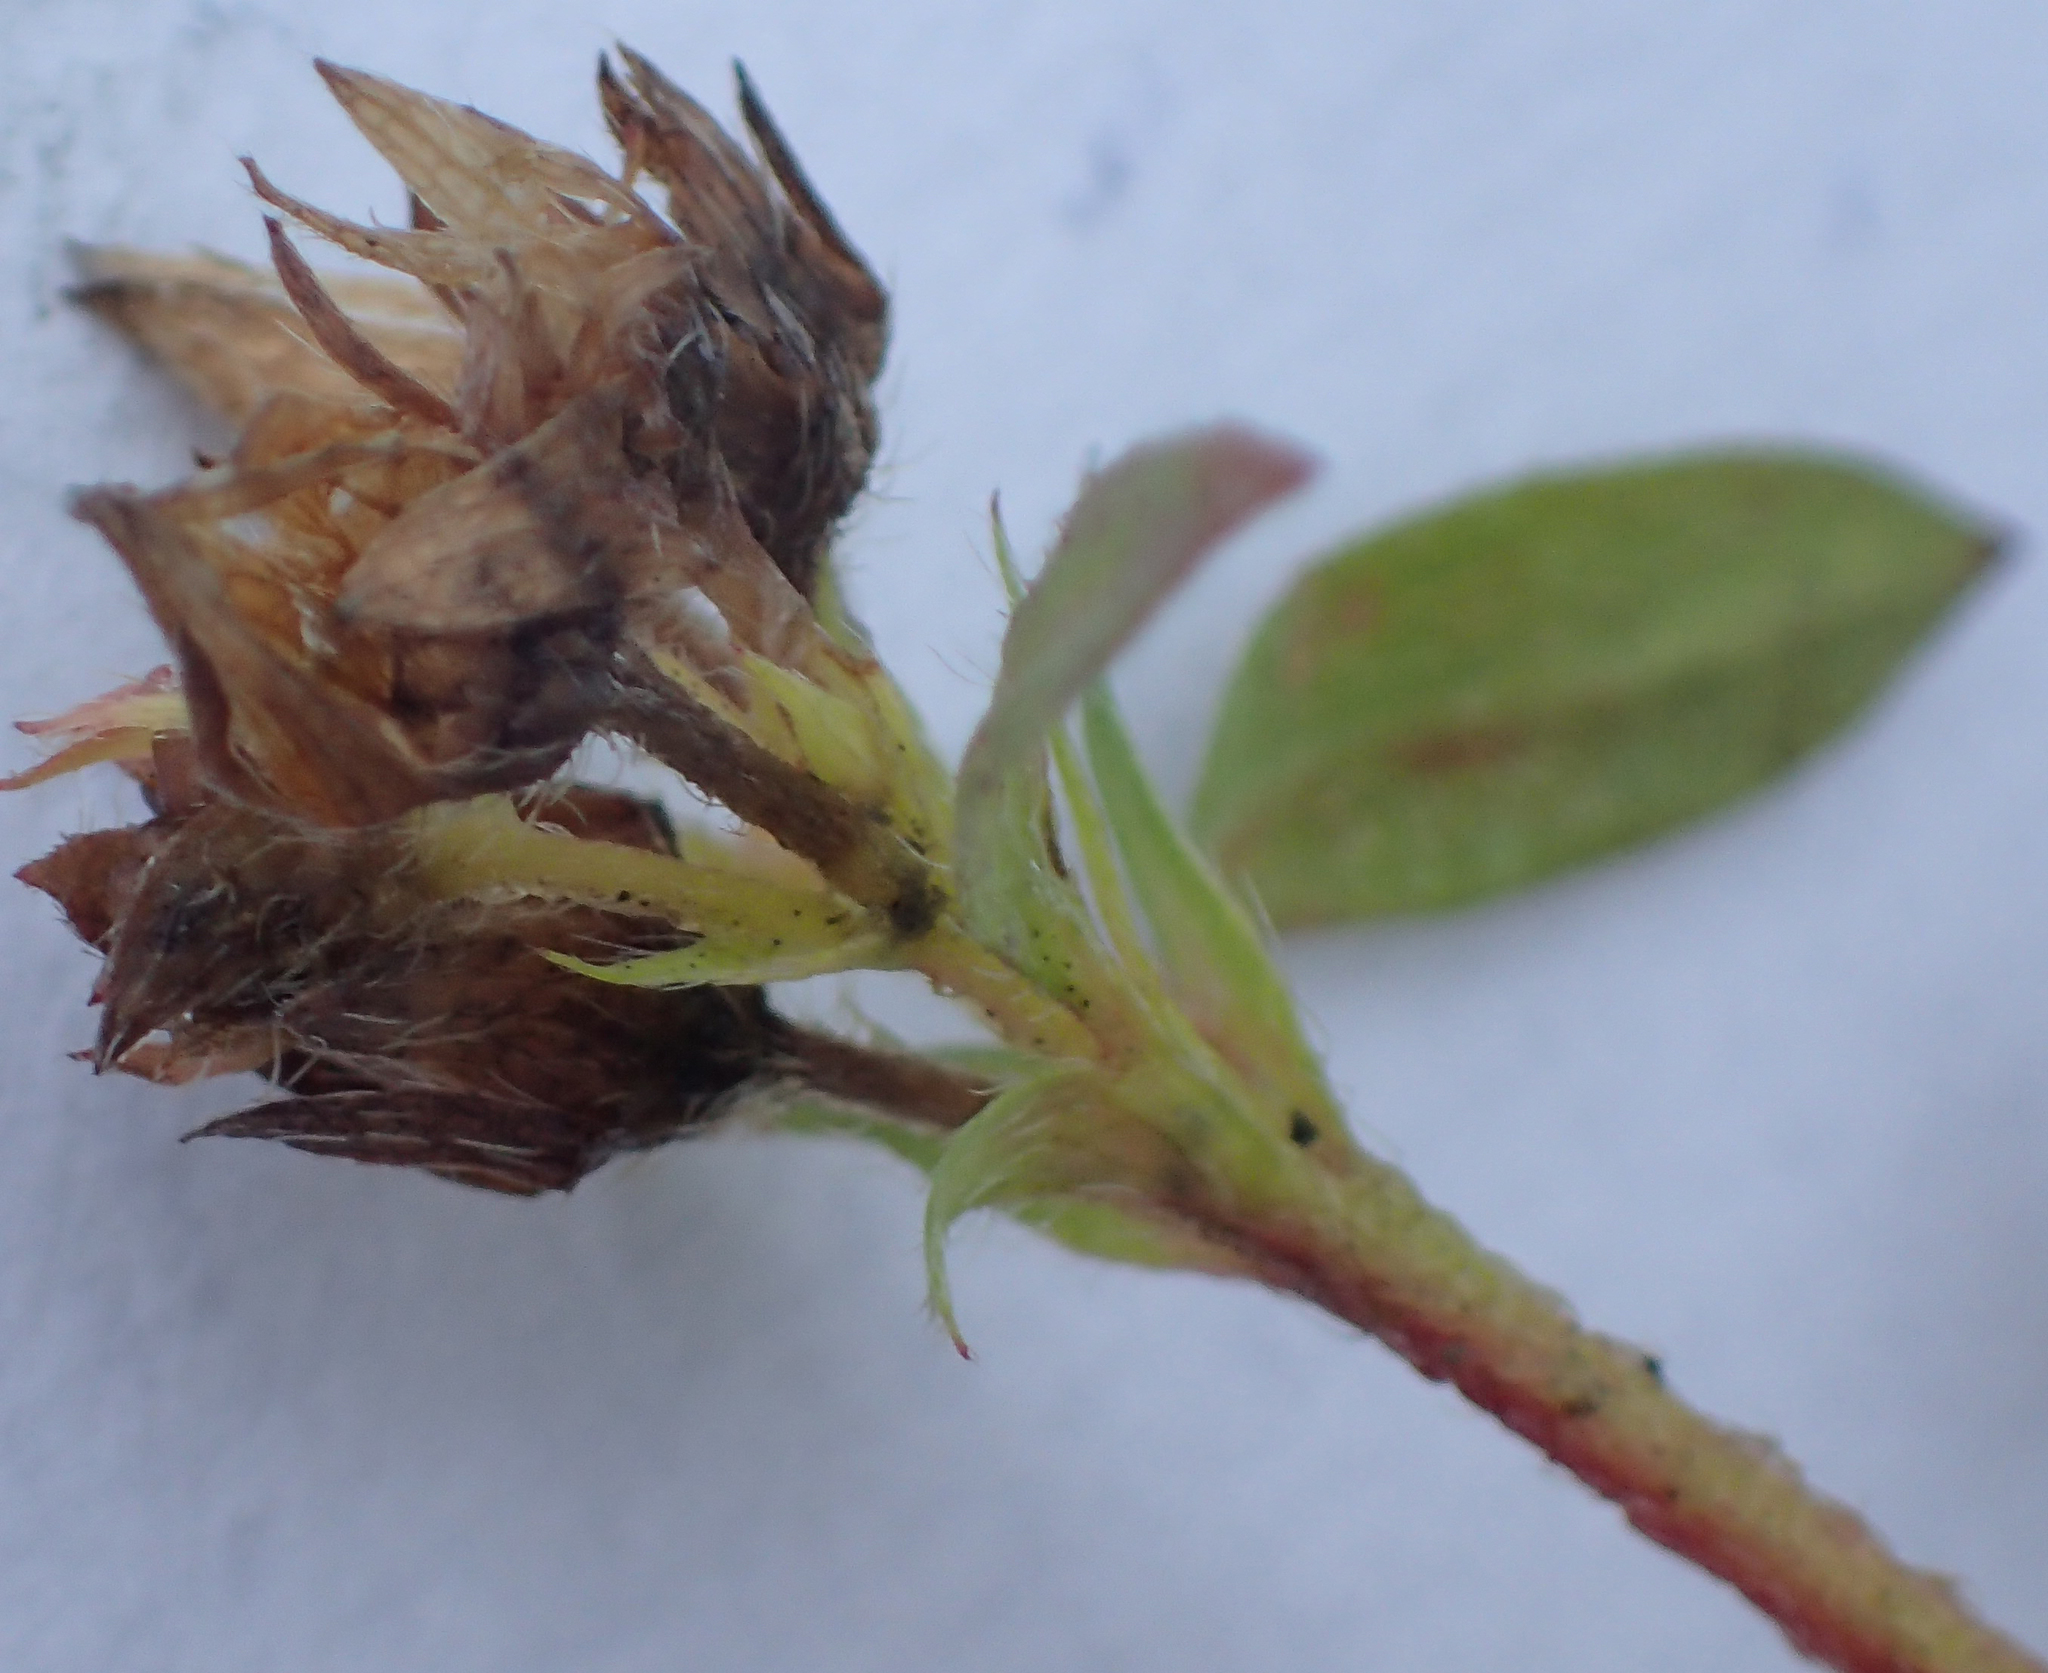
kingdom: Plantae
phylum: Tracheophyta
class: Magnoliopsida
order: Rosales
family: Rosaceae
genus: Sibbaldia
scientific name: Sibbaldia procumbens
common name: Creeping sibbaldia
